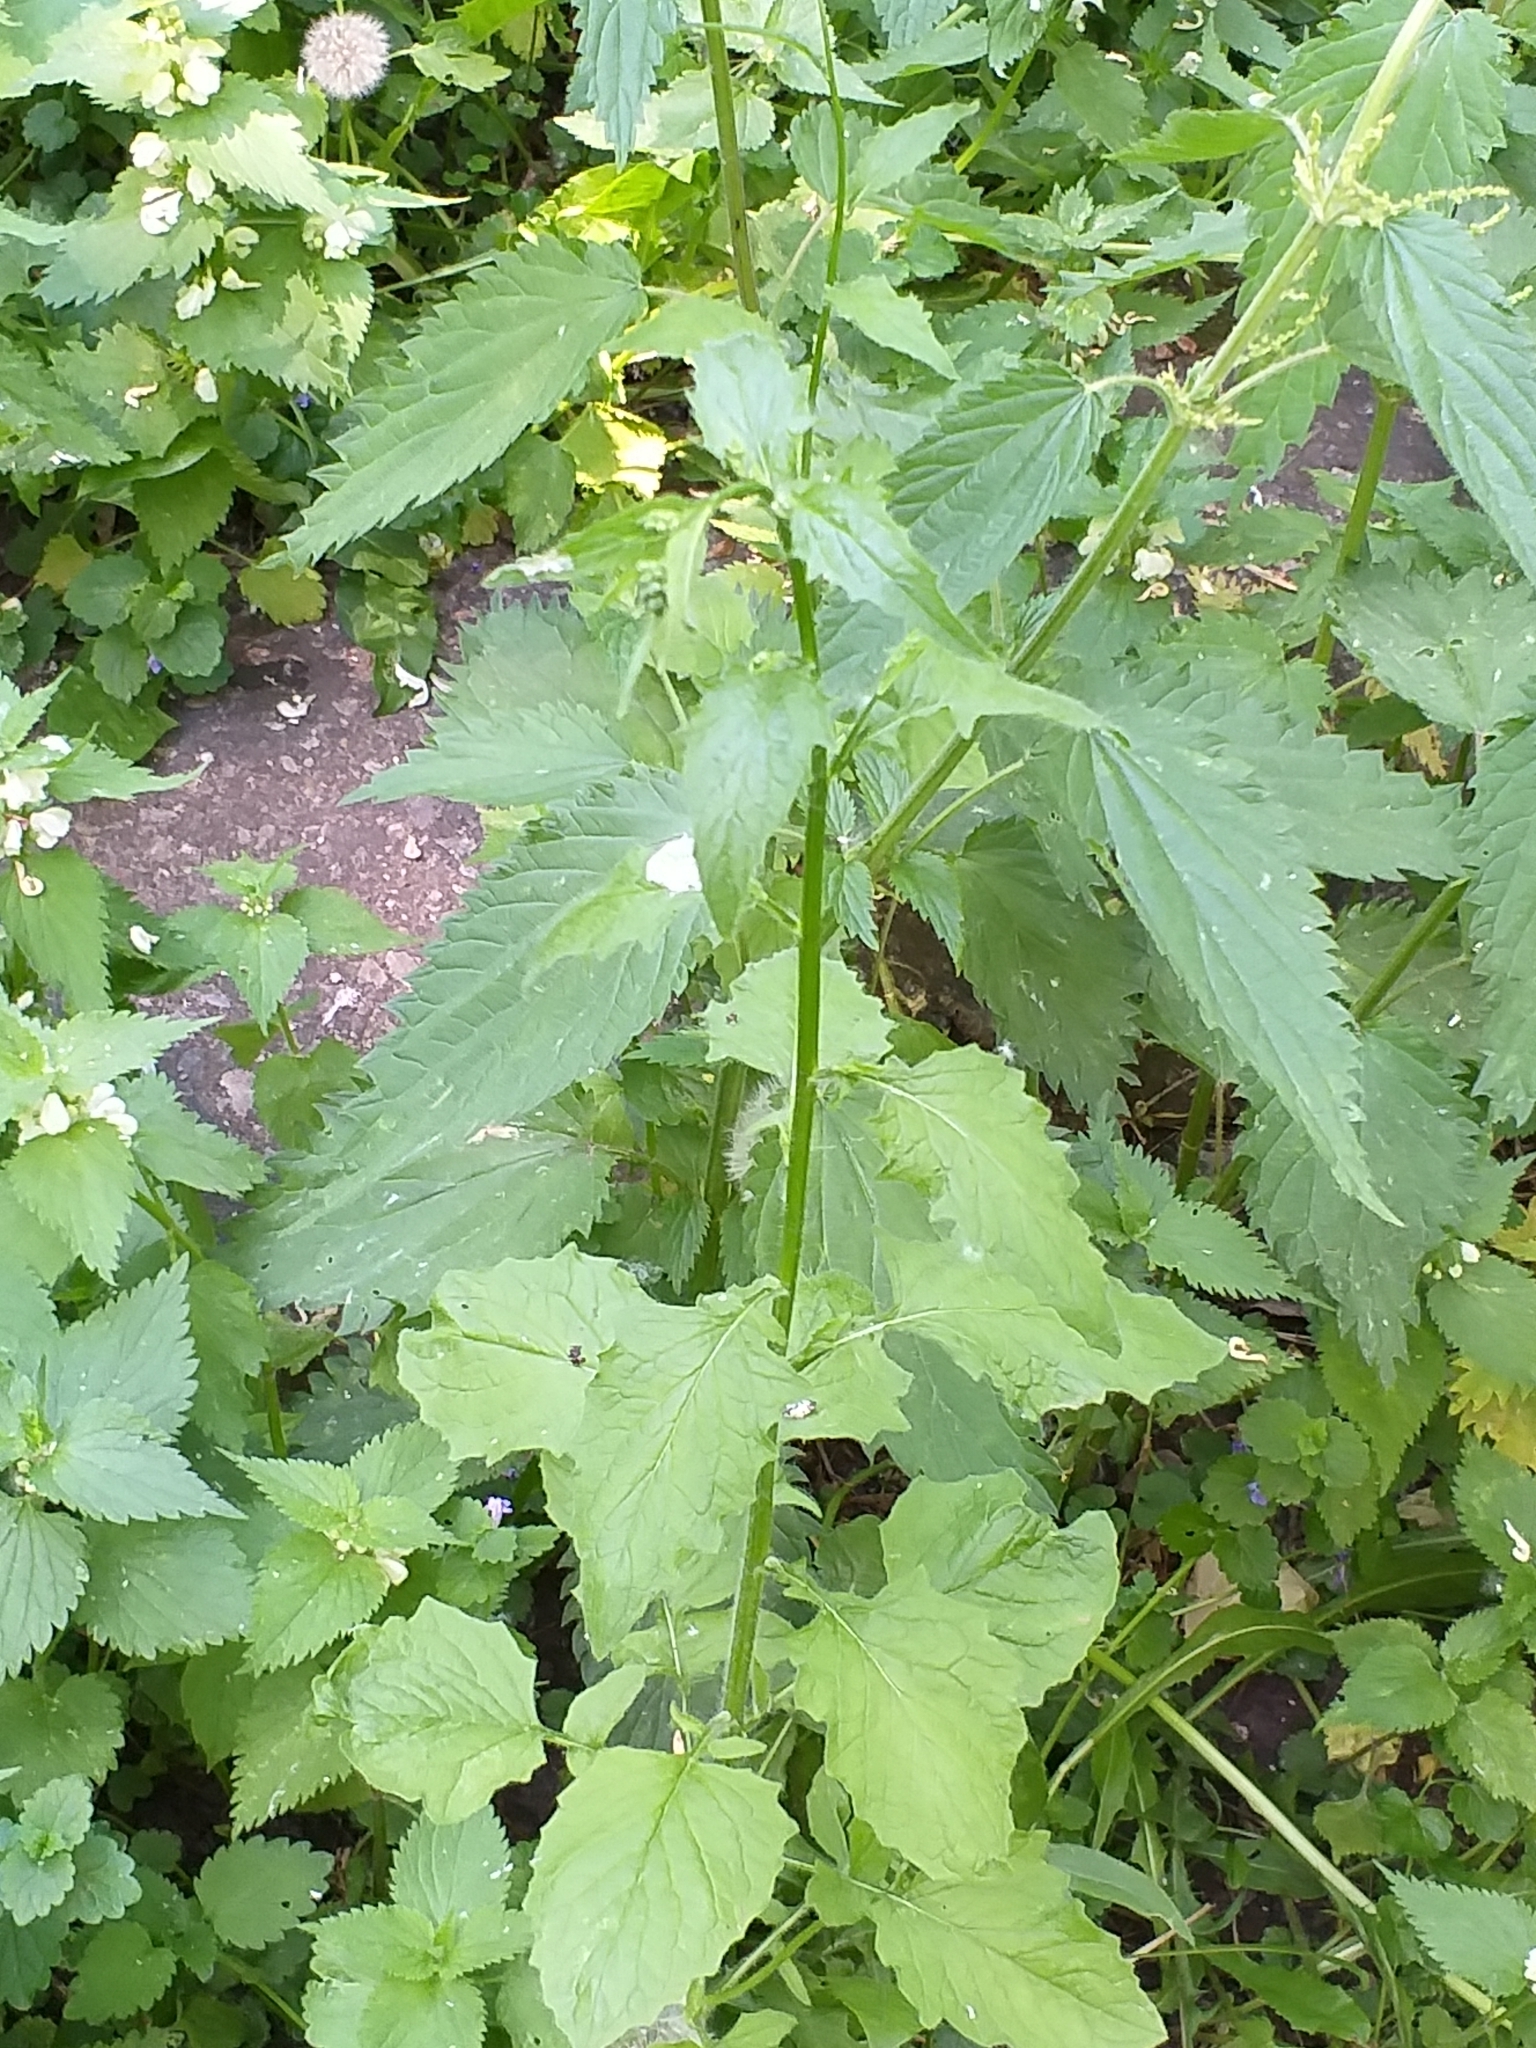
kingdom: Plantae
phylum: Tracheophyta
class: Magnoliopsida
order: Asterales
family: Asteraceae
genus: Lapsana
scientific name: Lapsana communis
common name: Nipplewort
